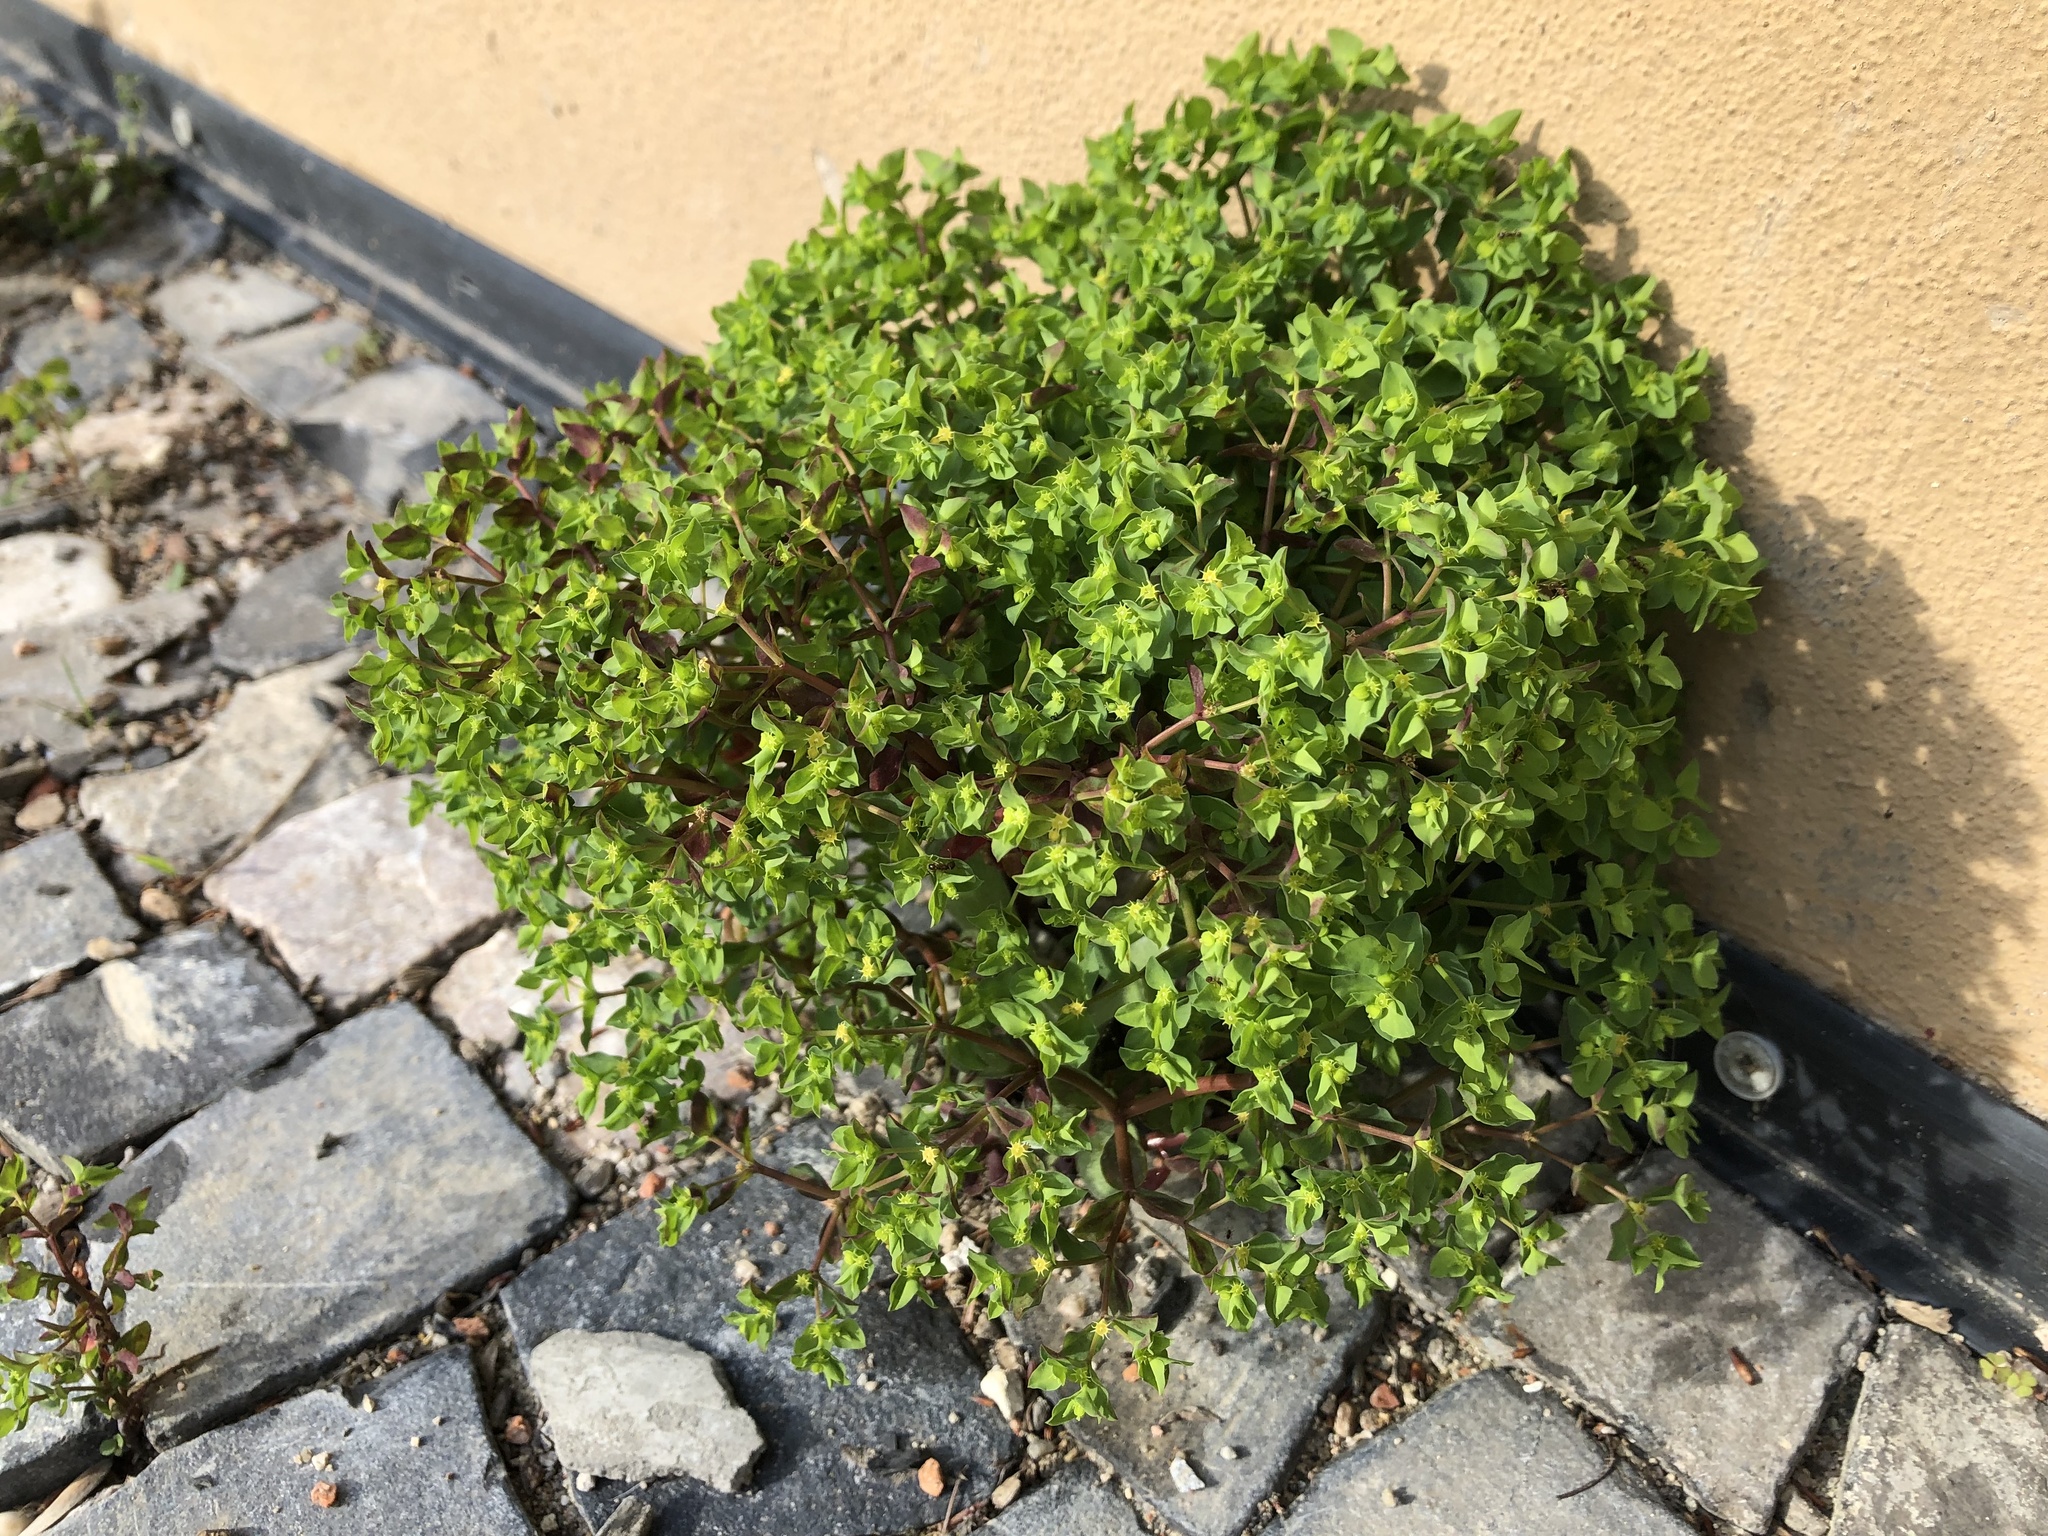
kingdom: Plantae
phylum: Tracheophyta
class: Magnoliopsida
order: Malpighiales
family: Euphorbiaceae
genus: Euphorbia
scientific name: Euphorbia peplus
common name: Petty spurge
